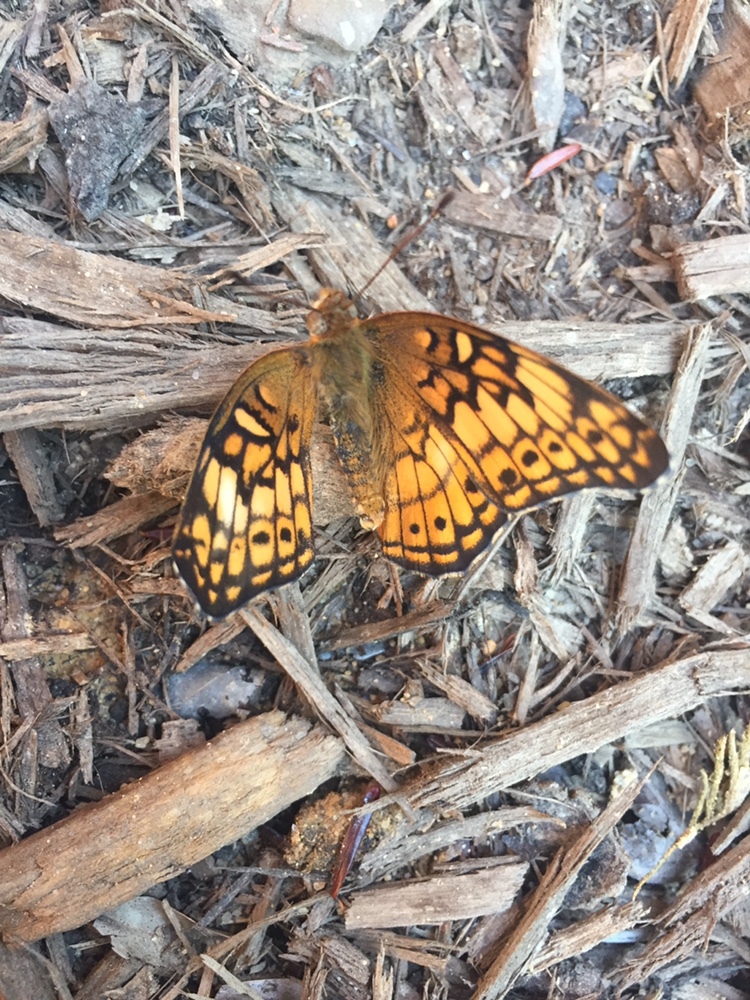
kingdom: Animalia
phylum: Arthropoda
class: Insecta
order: Lepidoptera
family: Nymphalidae
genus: Euptoieta
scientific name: Euptoieta claudia
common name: Variegated fritillary
